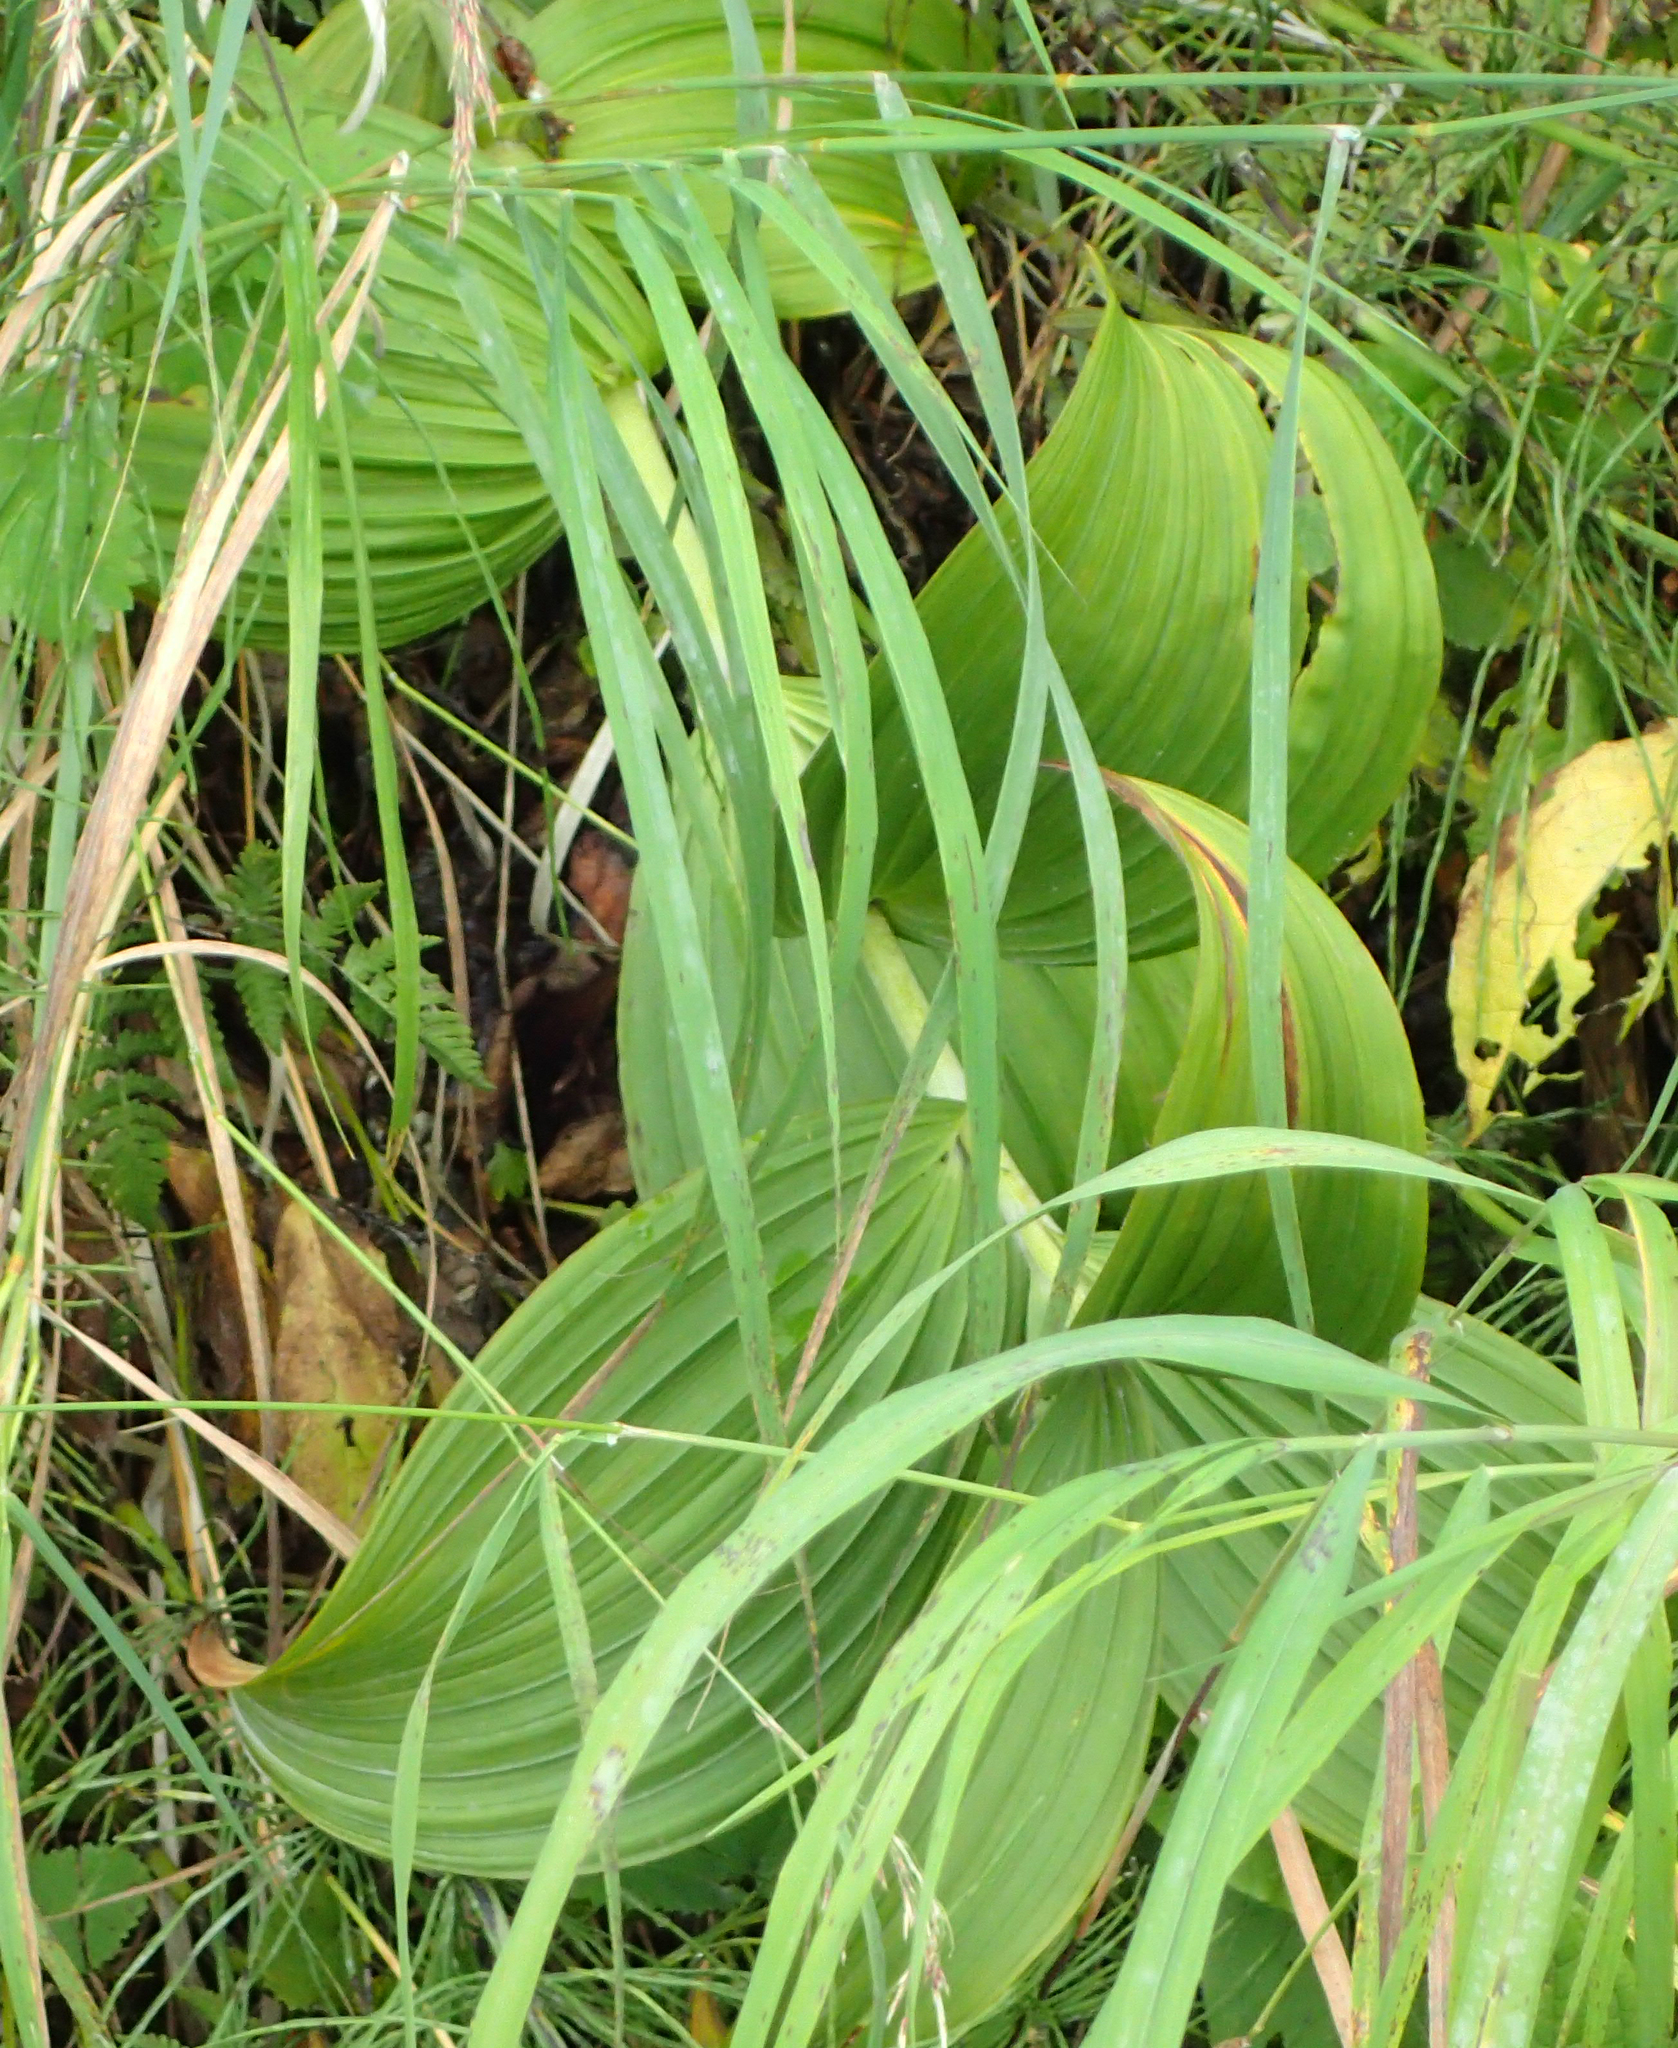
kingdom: Plantae
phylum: Tracheophyta
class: Liliopsida
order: Liliales
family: Melanthiaceae
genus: Veratrum
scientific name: Veratrum viride
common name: American false hellebore
